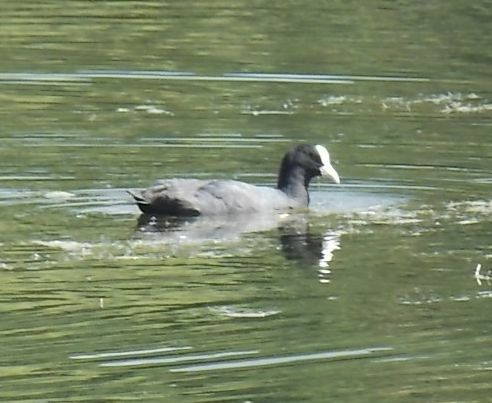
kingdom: Animalia
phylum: Chordata
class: Aves
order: Gruiformes
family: Rallidae
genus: Fulica
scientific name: Fulica atra
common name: Eurasian coot
